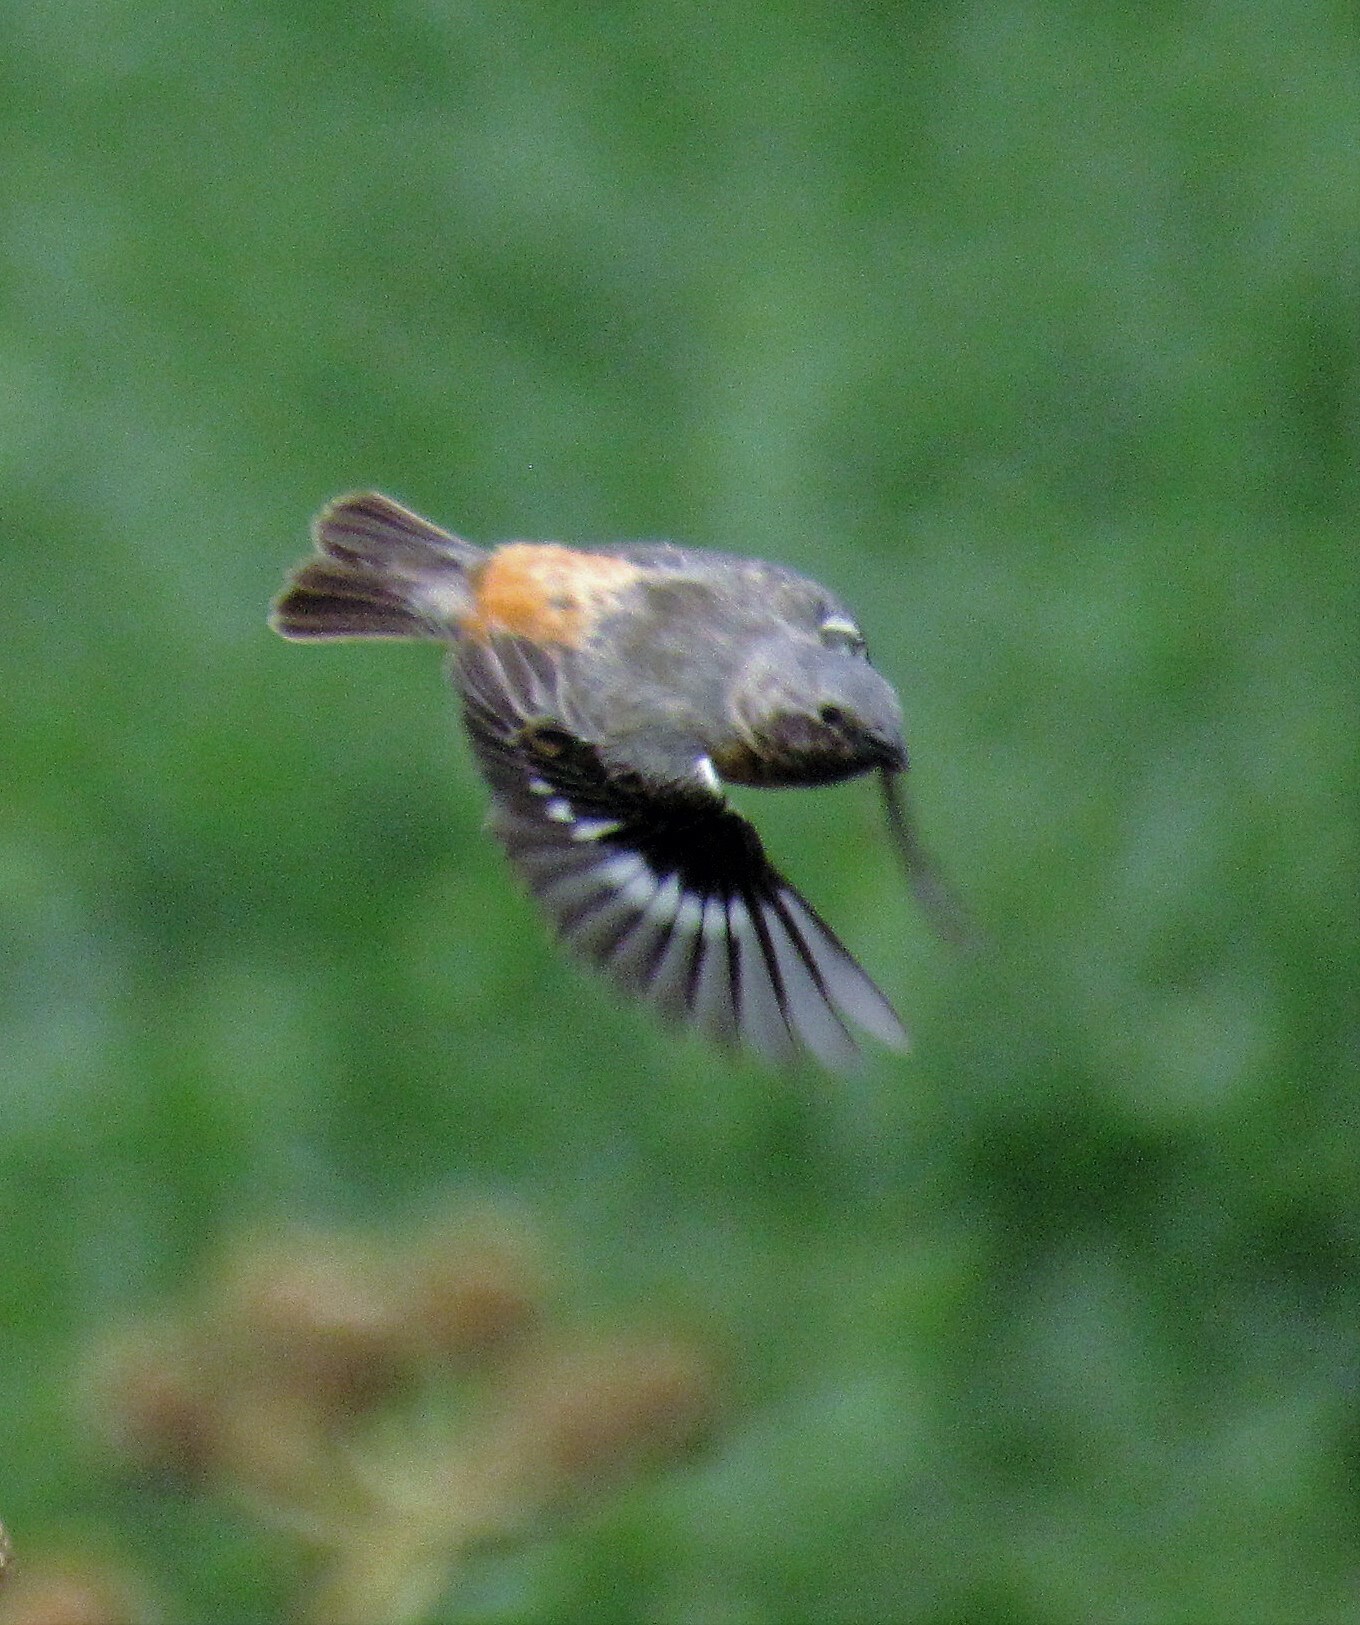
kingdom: Animalia
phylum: Chordata
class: Aves
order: Passeriformes
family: Thraupidae
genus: Sporophila
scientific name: Sporophila ruficollis
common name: Dark-throated seedeater
